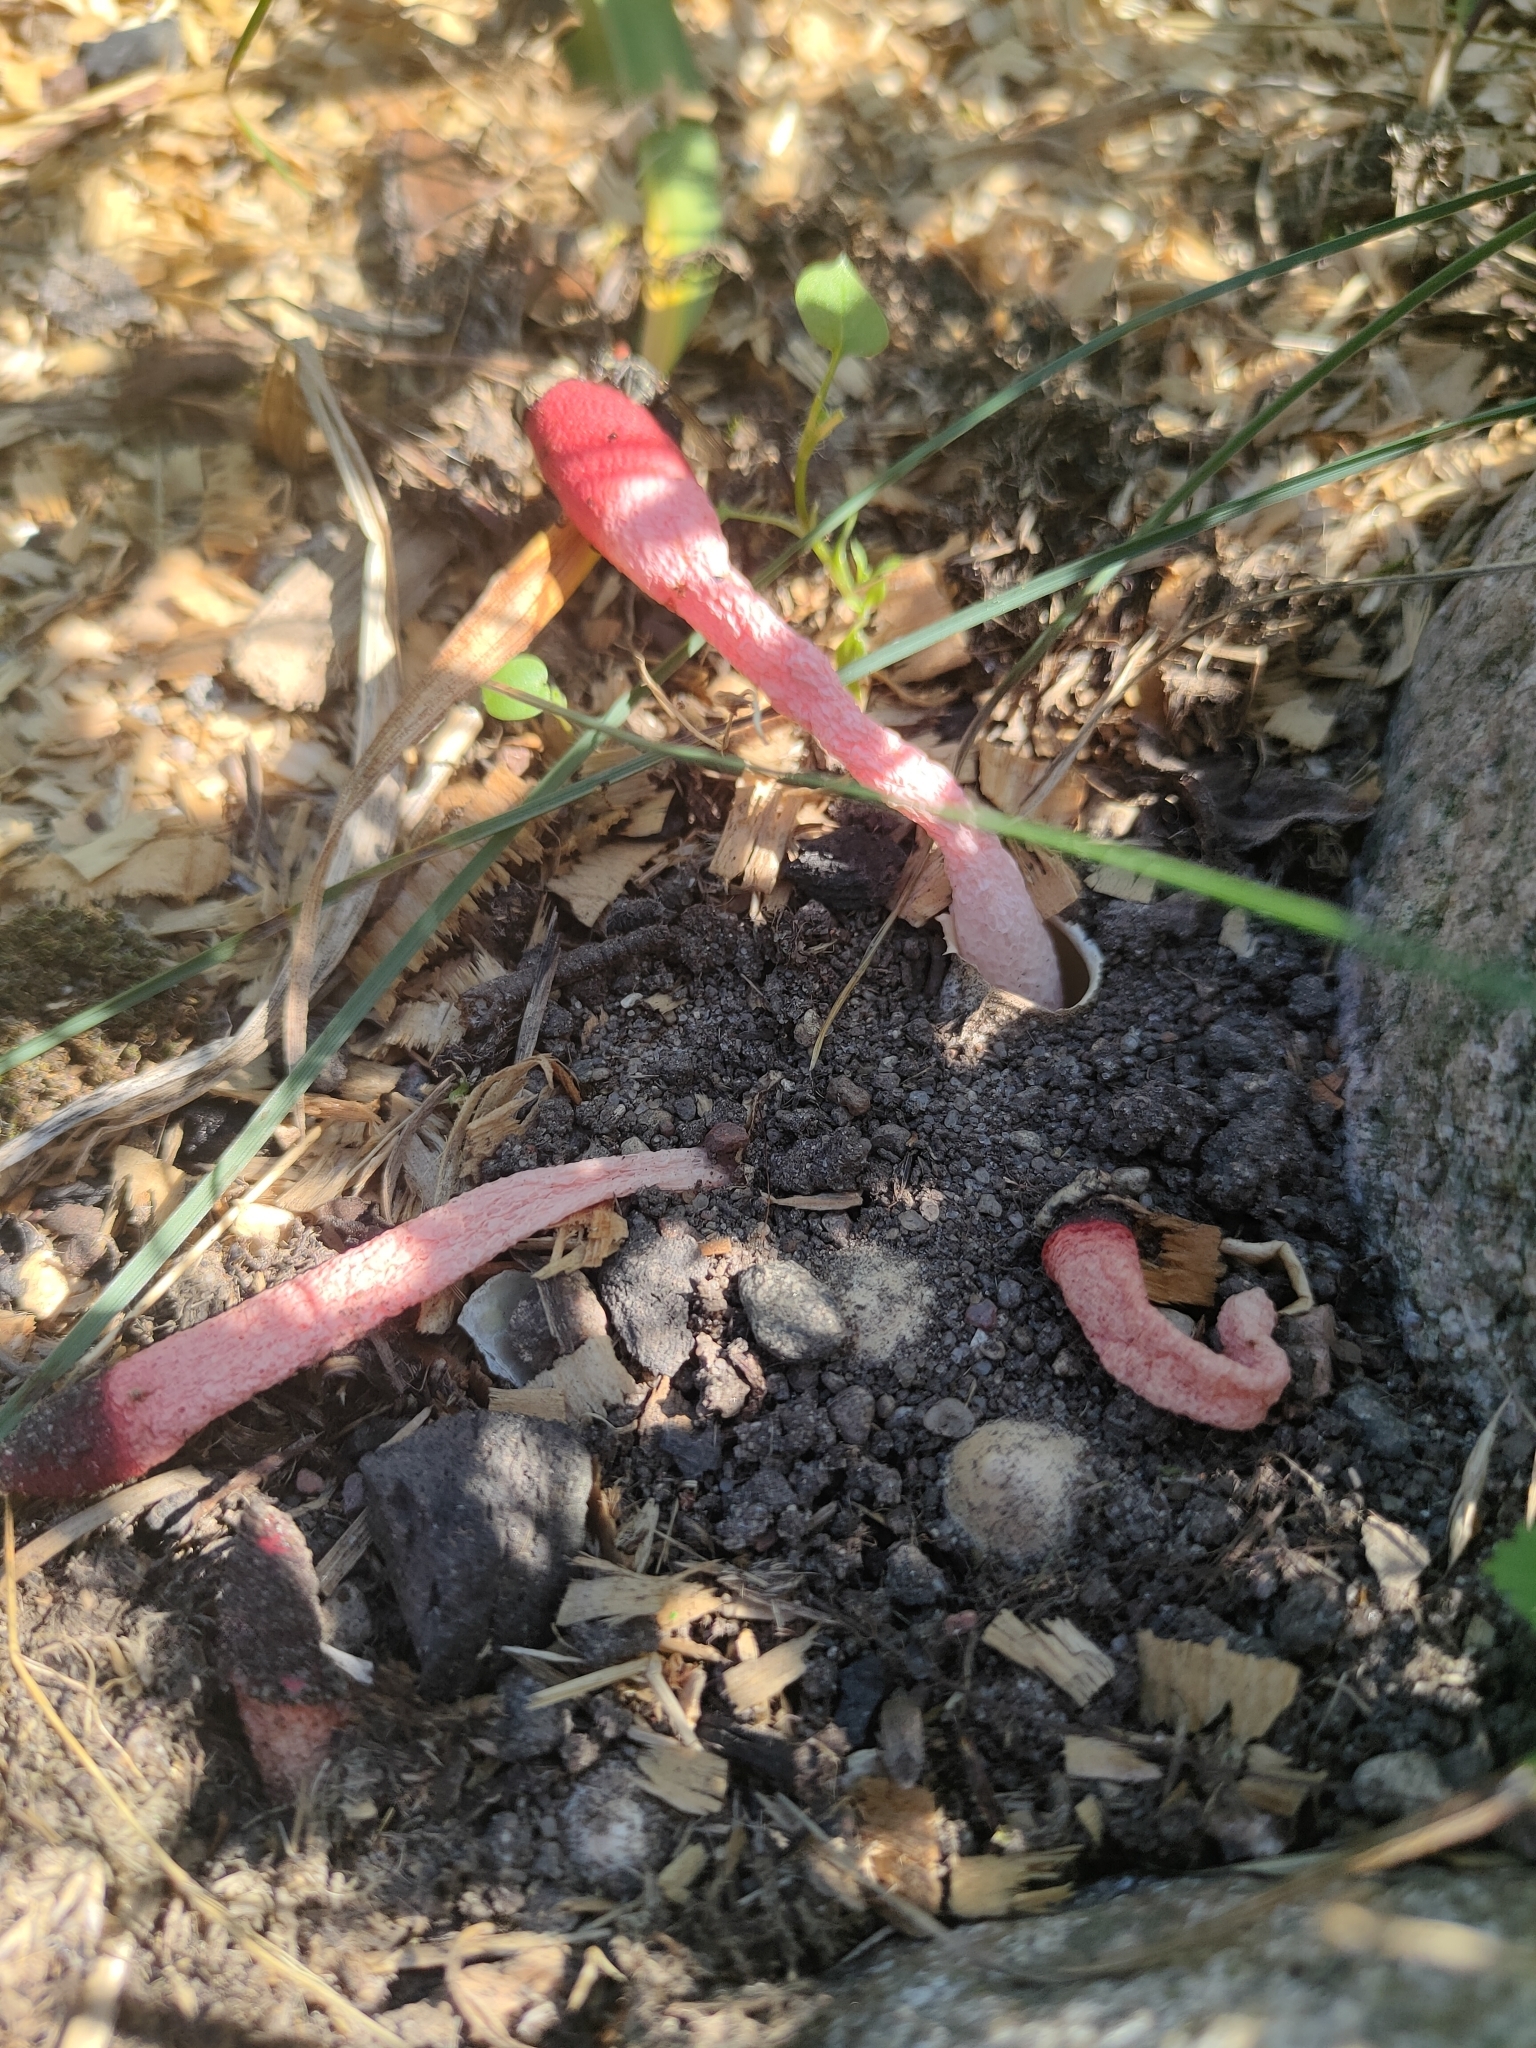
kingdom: Fungi
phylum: Basidiomycota
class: Agaricomycetes
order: Phallales
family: Phallaceae
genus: Mutinus
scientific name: Mutinus ravenelii
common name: Red stinkhorn
